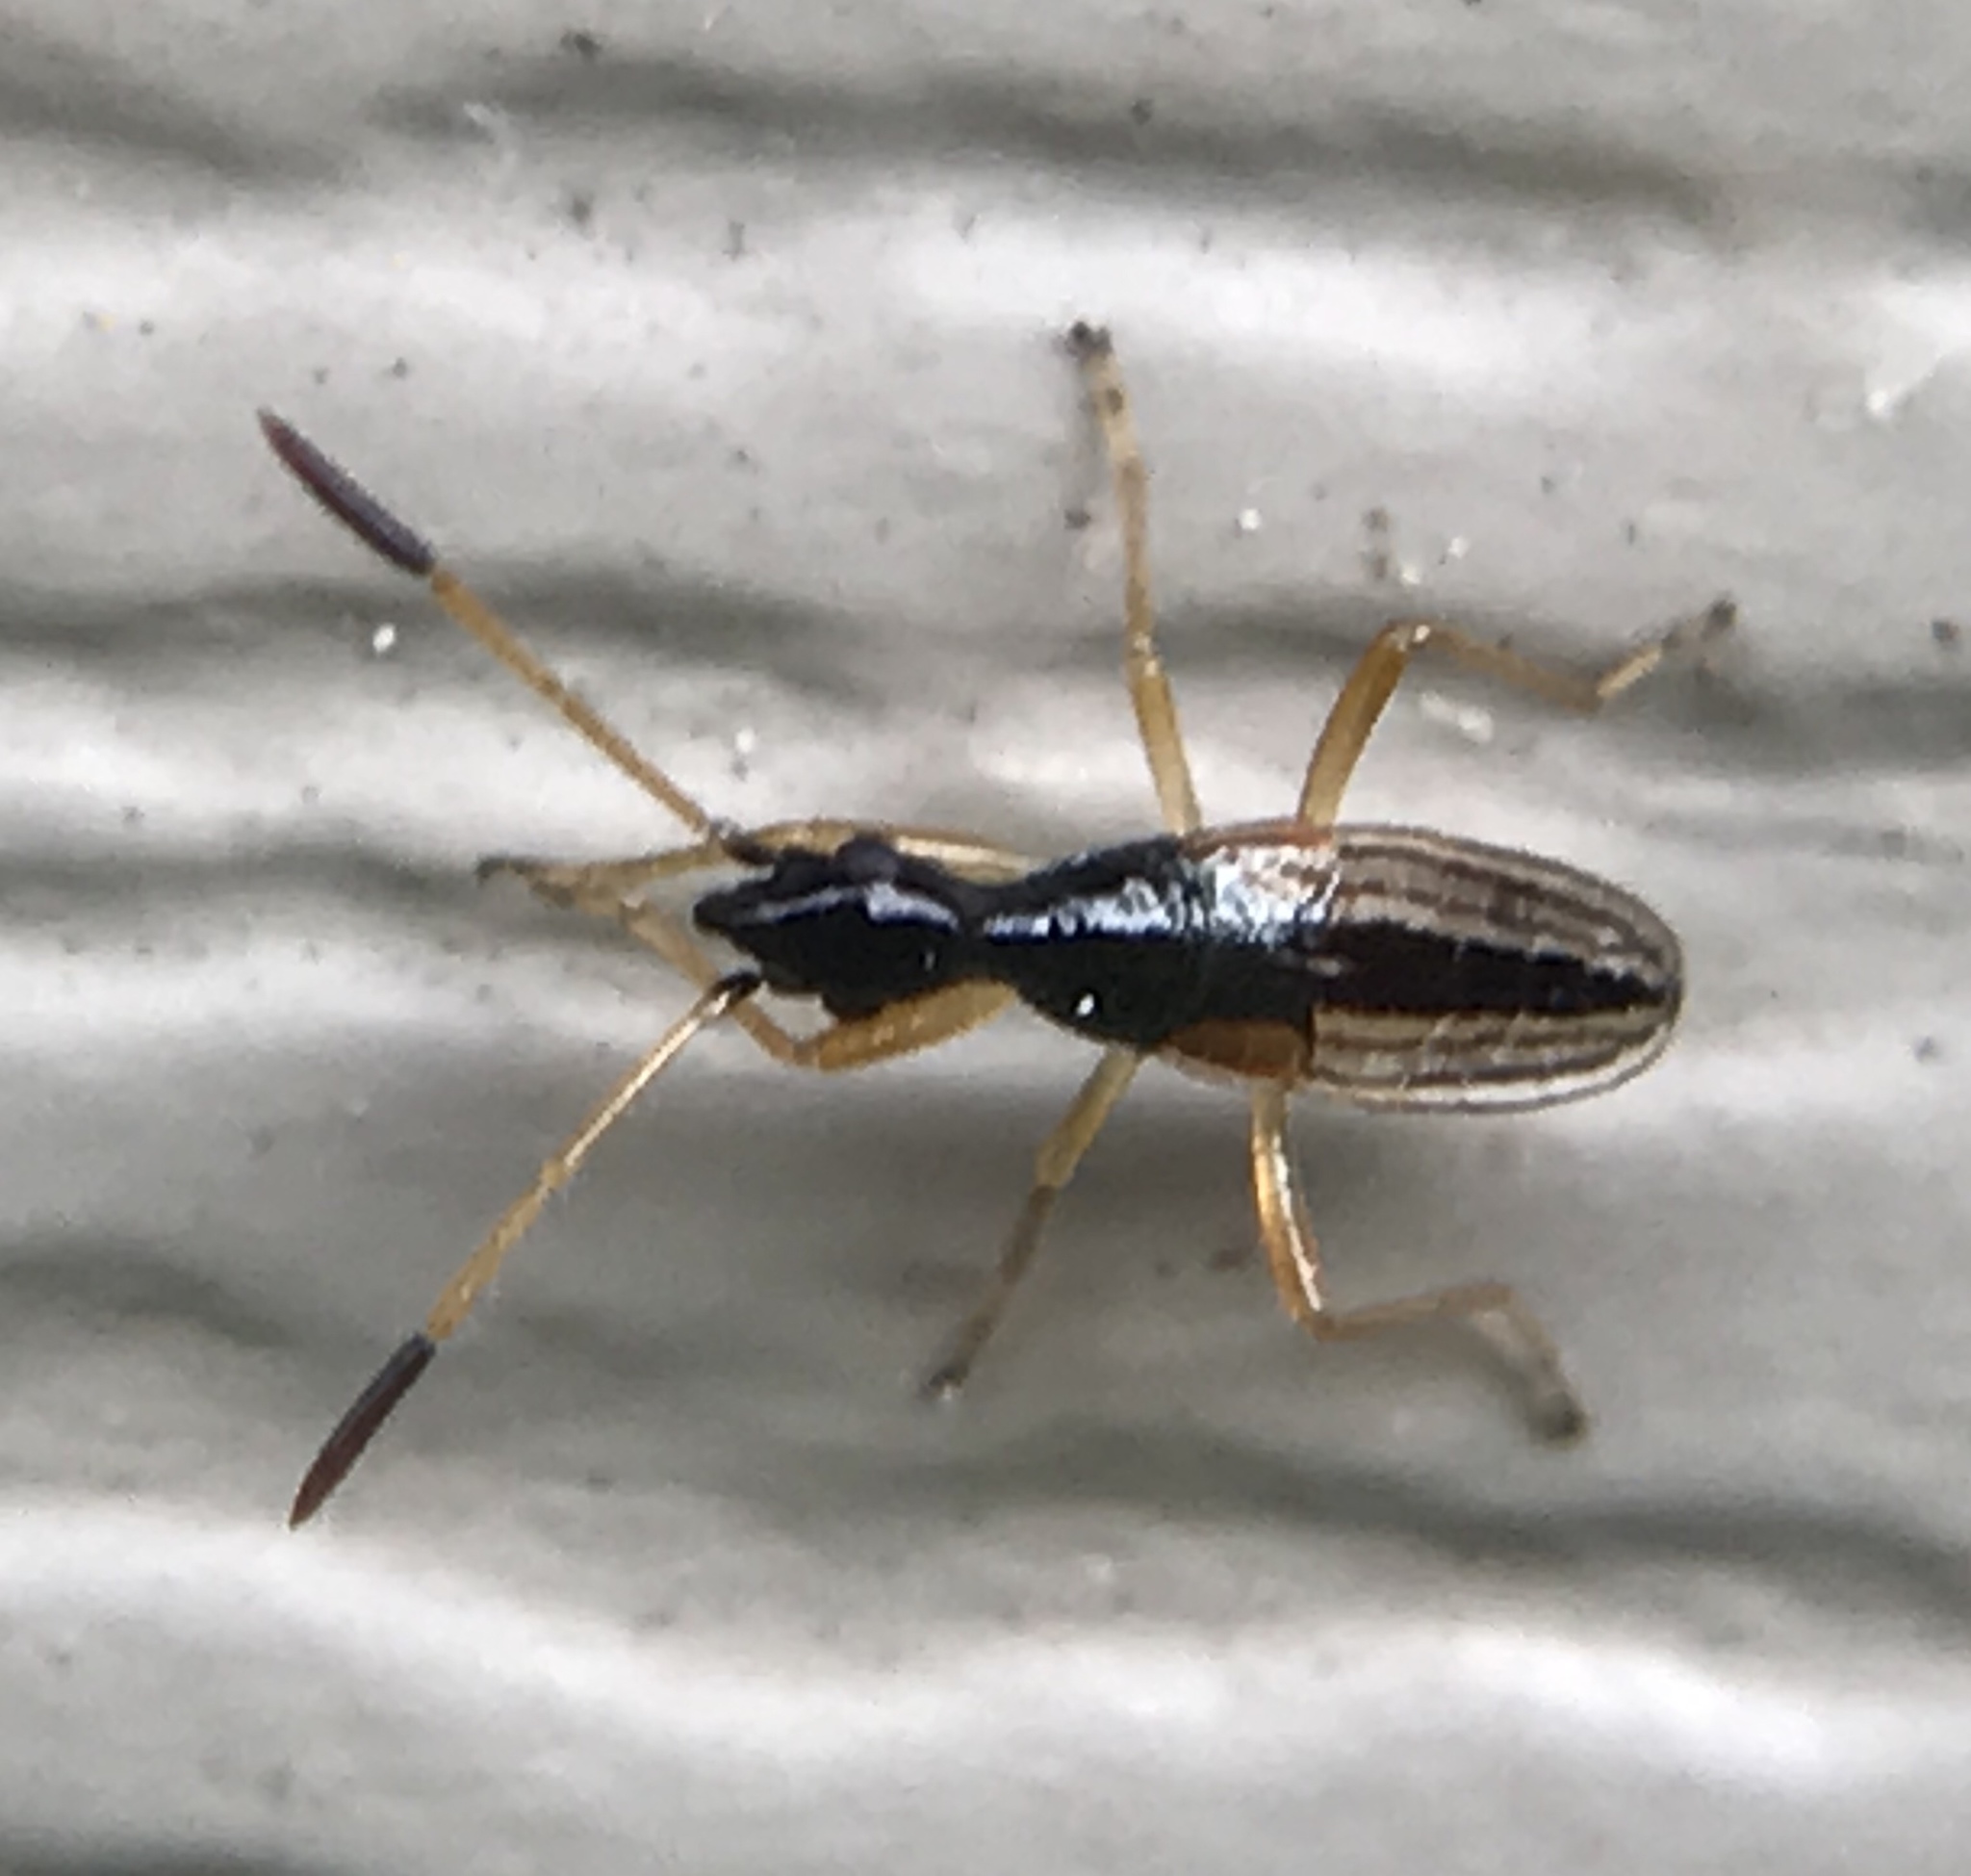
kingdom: Animalia
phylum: Arthropoda
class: Insecta
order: Hemiptera
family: Rhyparochromidae
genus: Myodocha
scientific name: Myodocha serripes
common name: Long-necked seed bug
